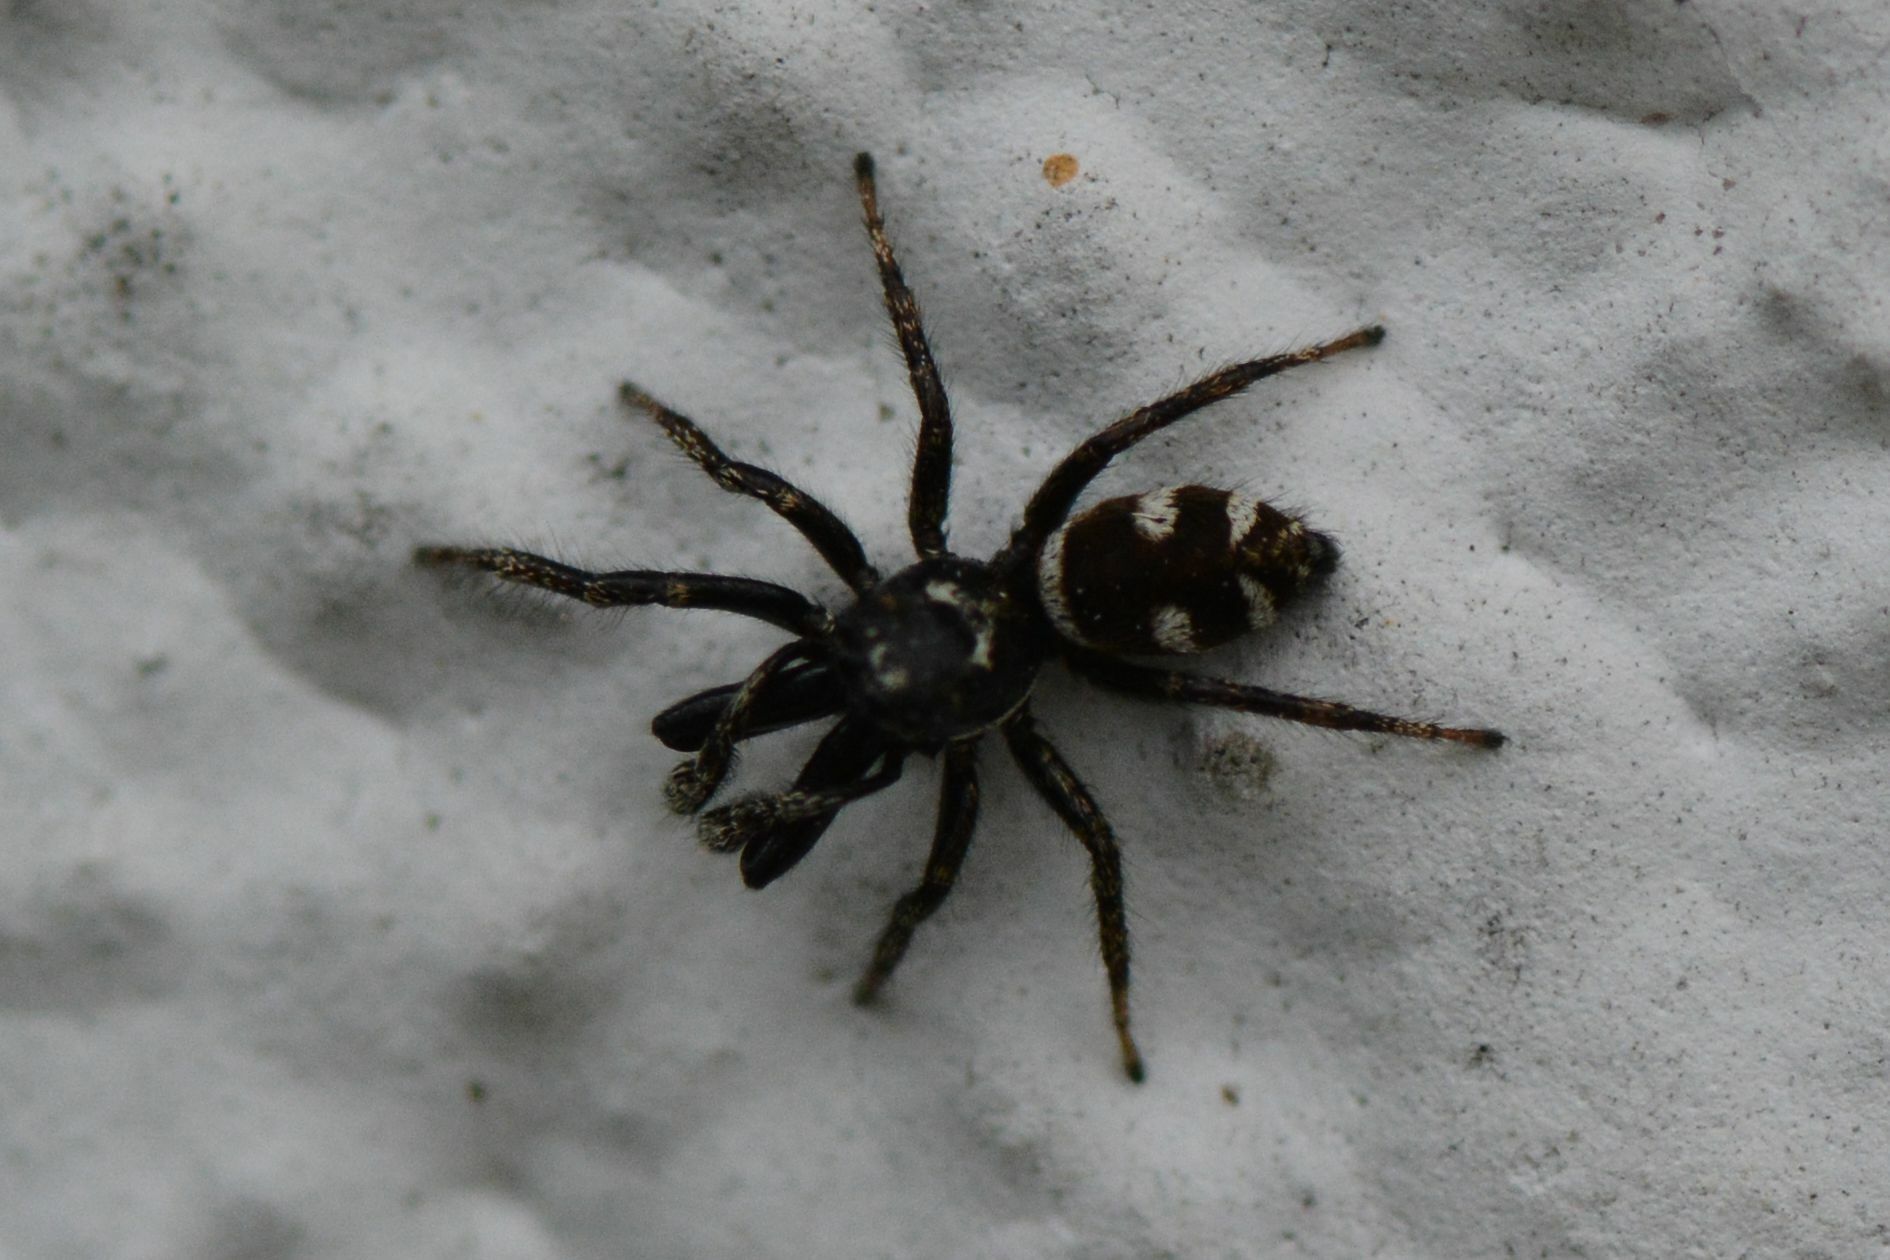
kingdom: Animalia
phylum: Arthropoda
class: Arachnida
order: Araneae
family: Salticidae
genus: Salticus
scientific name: Salticus scenicus
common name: Zebra jumper
